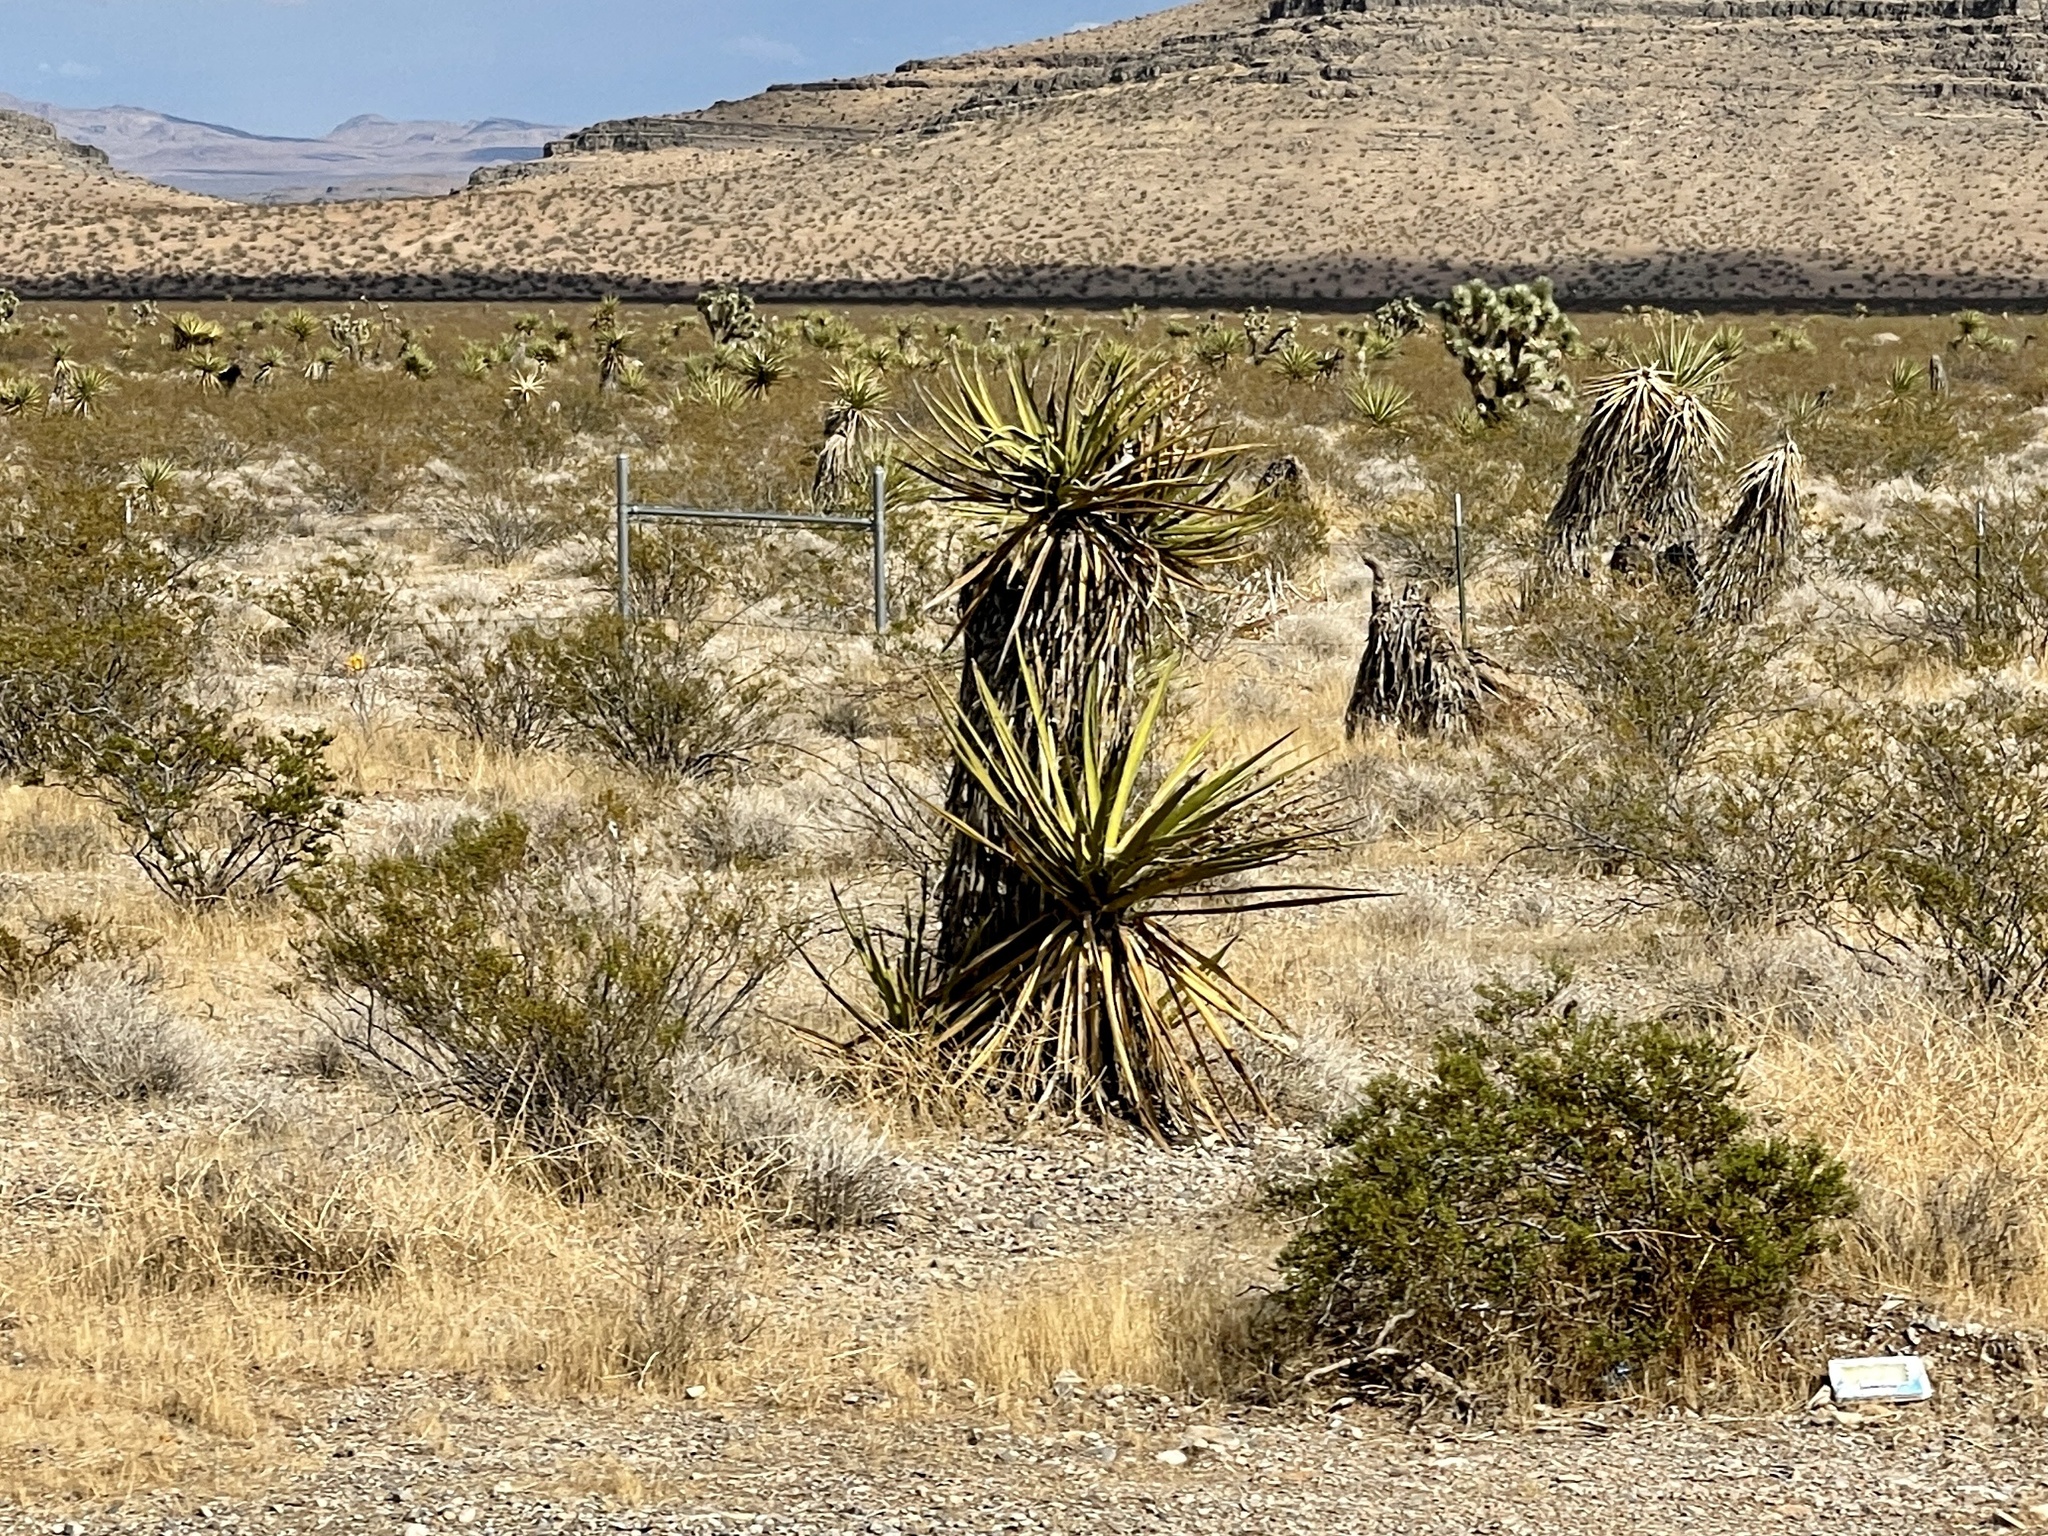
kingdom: Plantae
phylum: Tracheophyta
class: Liliopsida
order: Asparagales
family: Asparagaceae
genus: Yucca
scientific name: Yucca schidigera
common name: Mojave yucca
